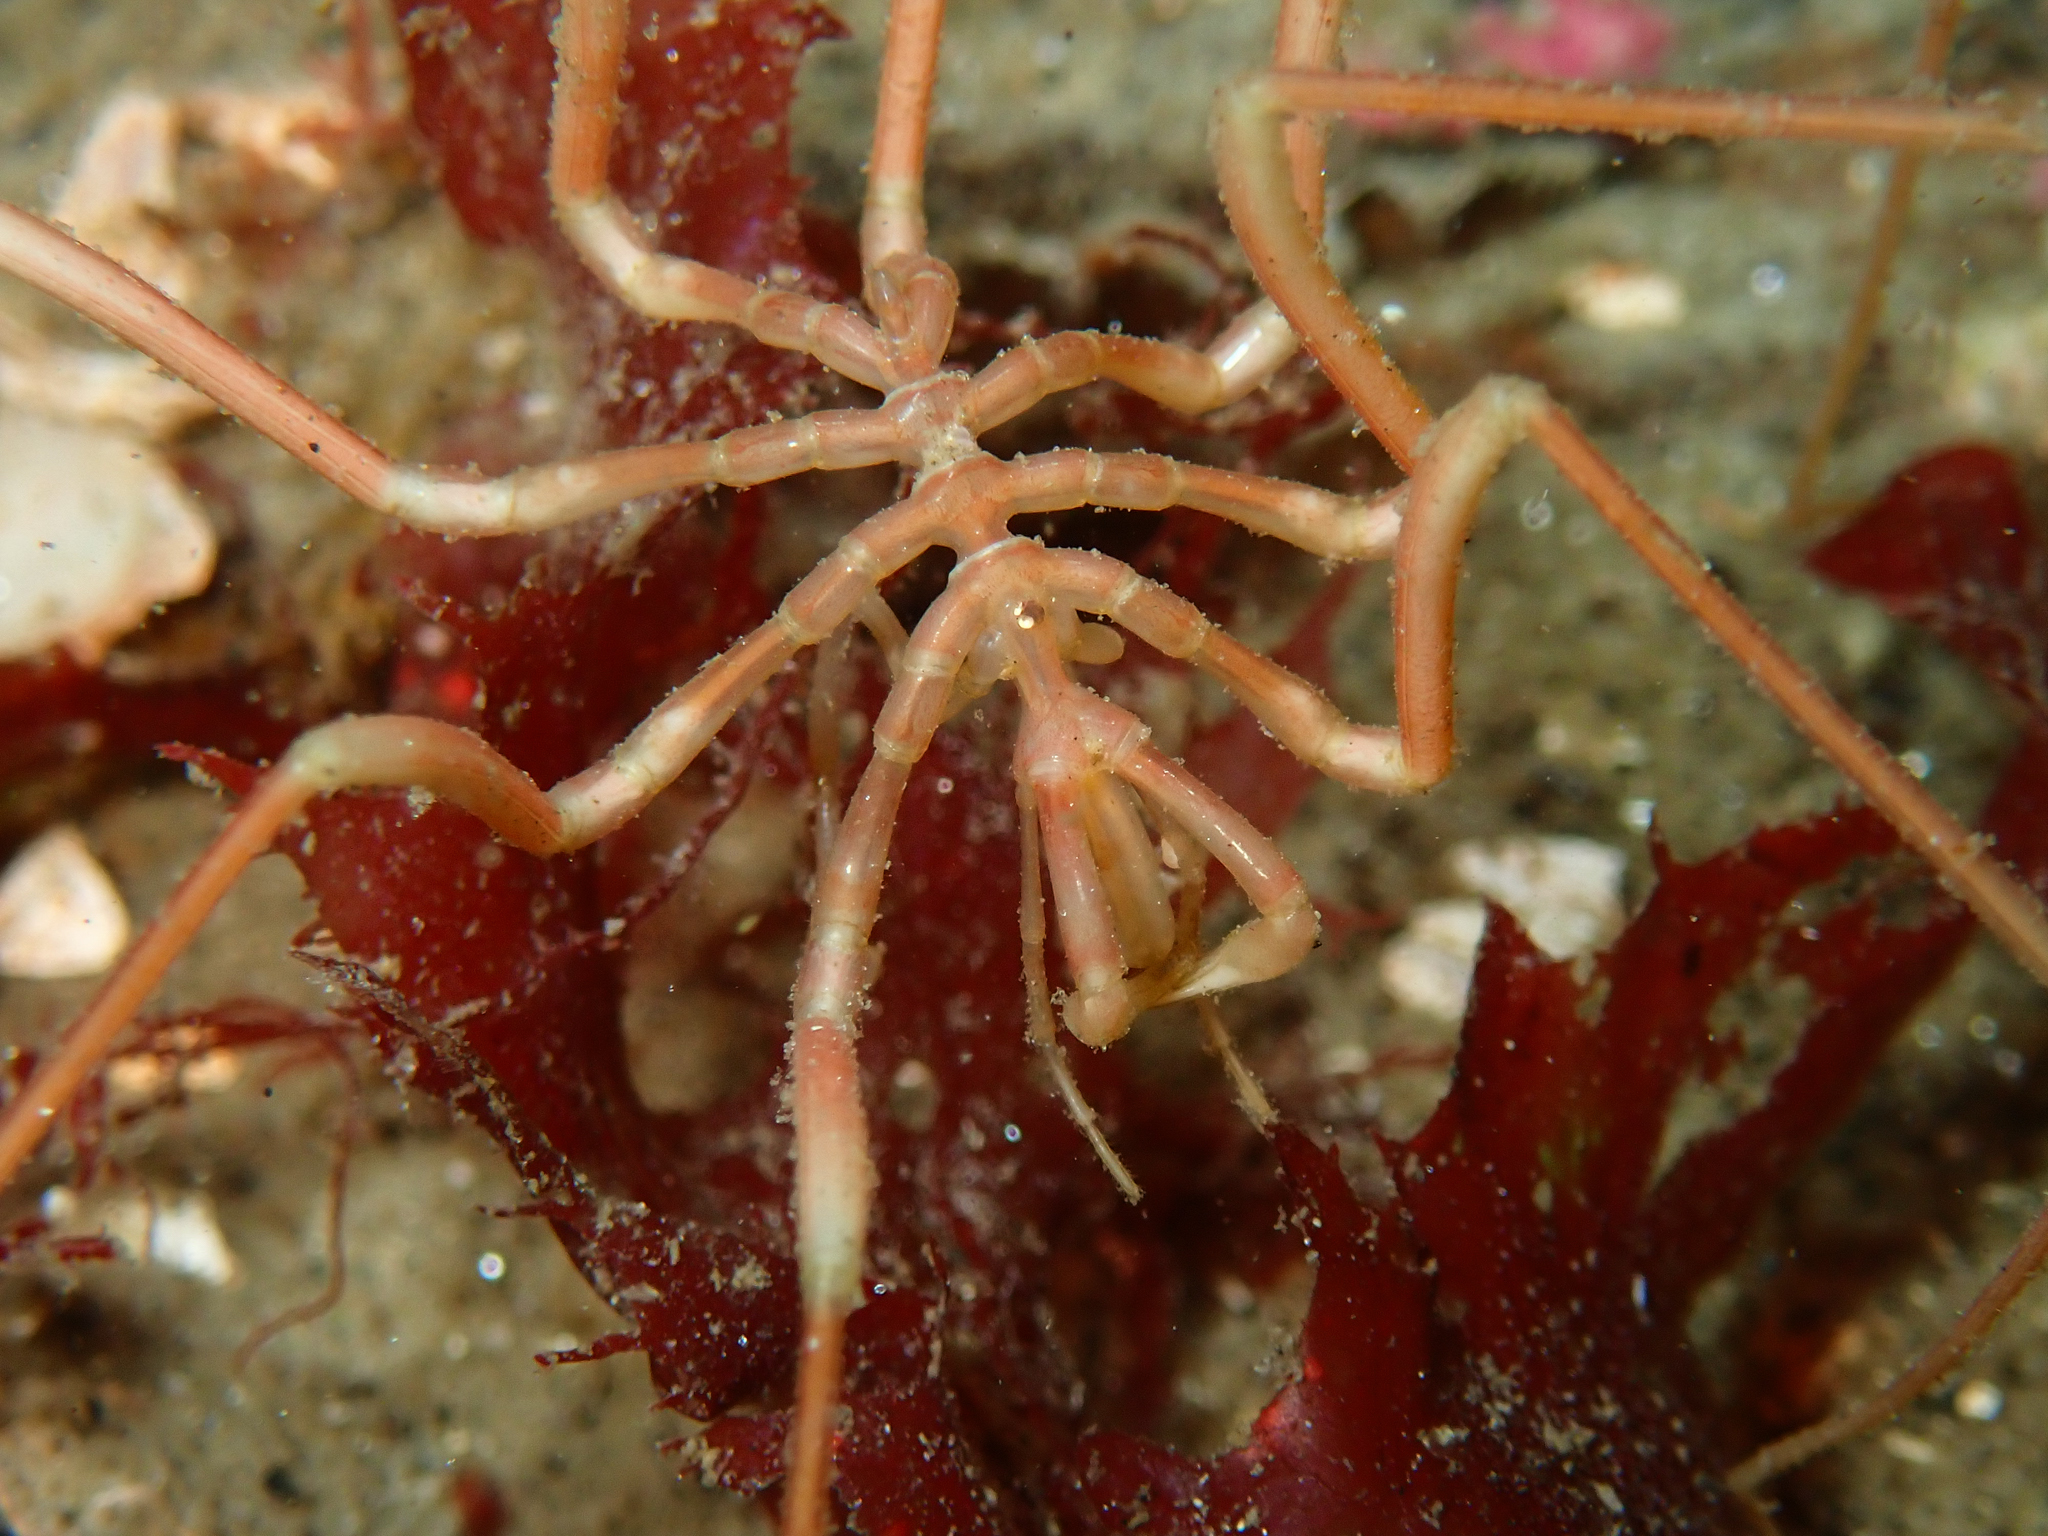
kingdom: Animalia
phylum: Arthropoda
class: Pycnogonida
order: Pantopoda
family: Nymphonidae
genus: Nymphon
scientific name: Nymphon stroemi
